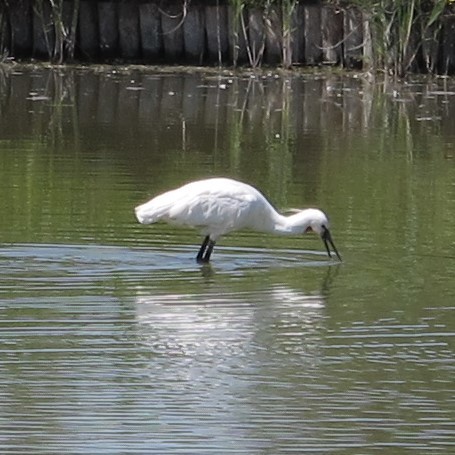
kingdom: Animalia
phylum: Chordata
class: Aves
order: Pelecaniformes
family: Threskiornithidae
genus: Platalea
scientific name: Platalea leucorodia
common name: Eurasian spoonbill
